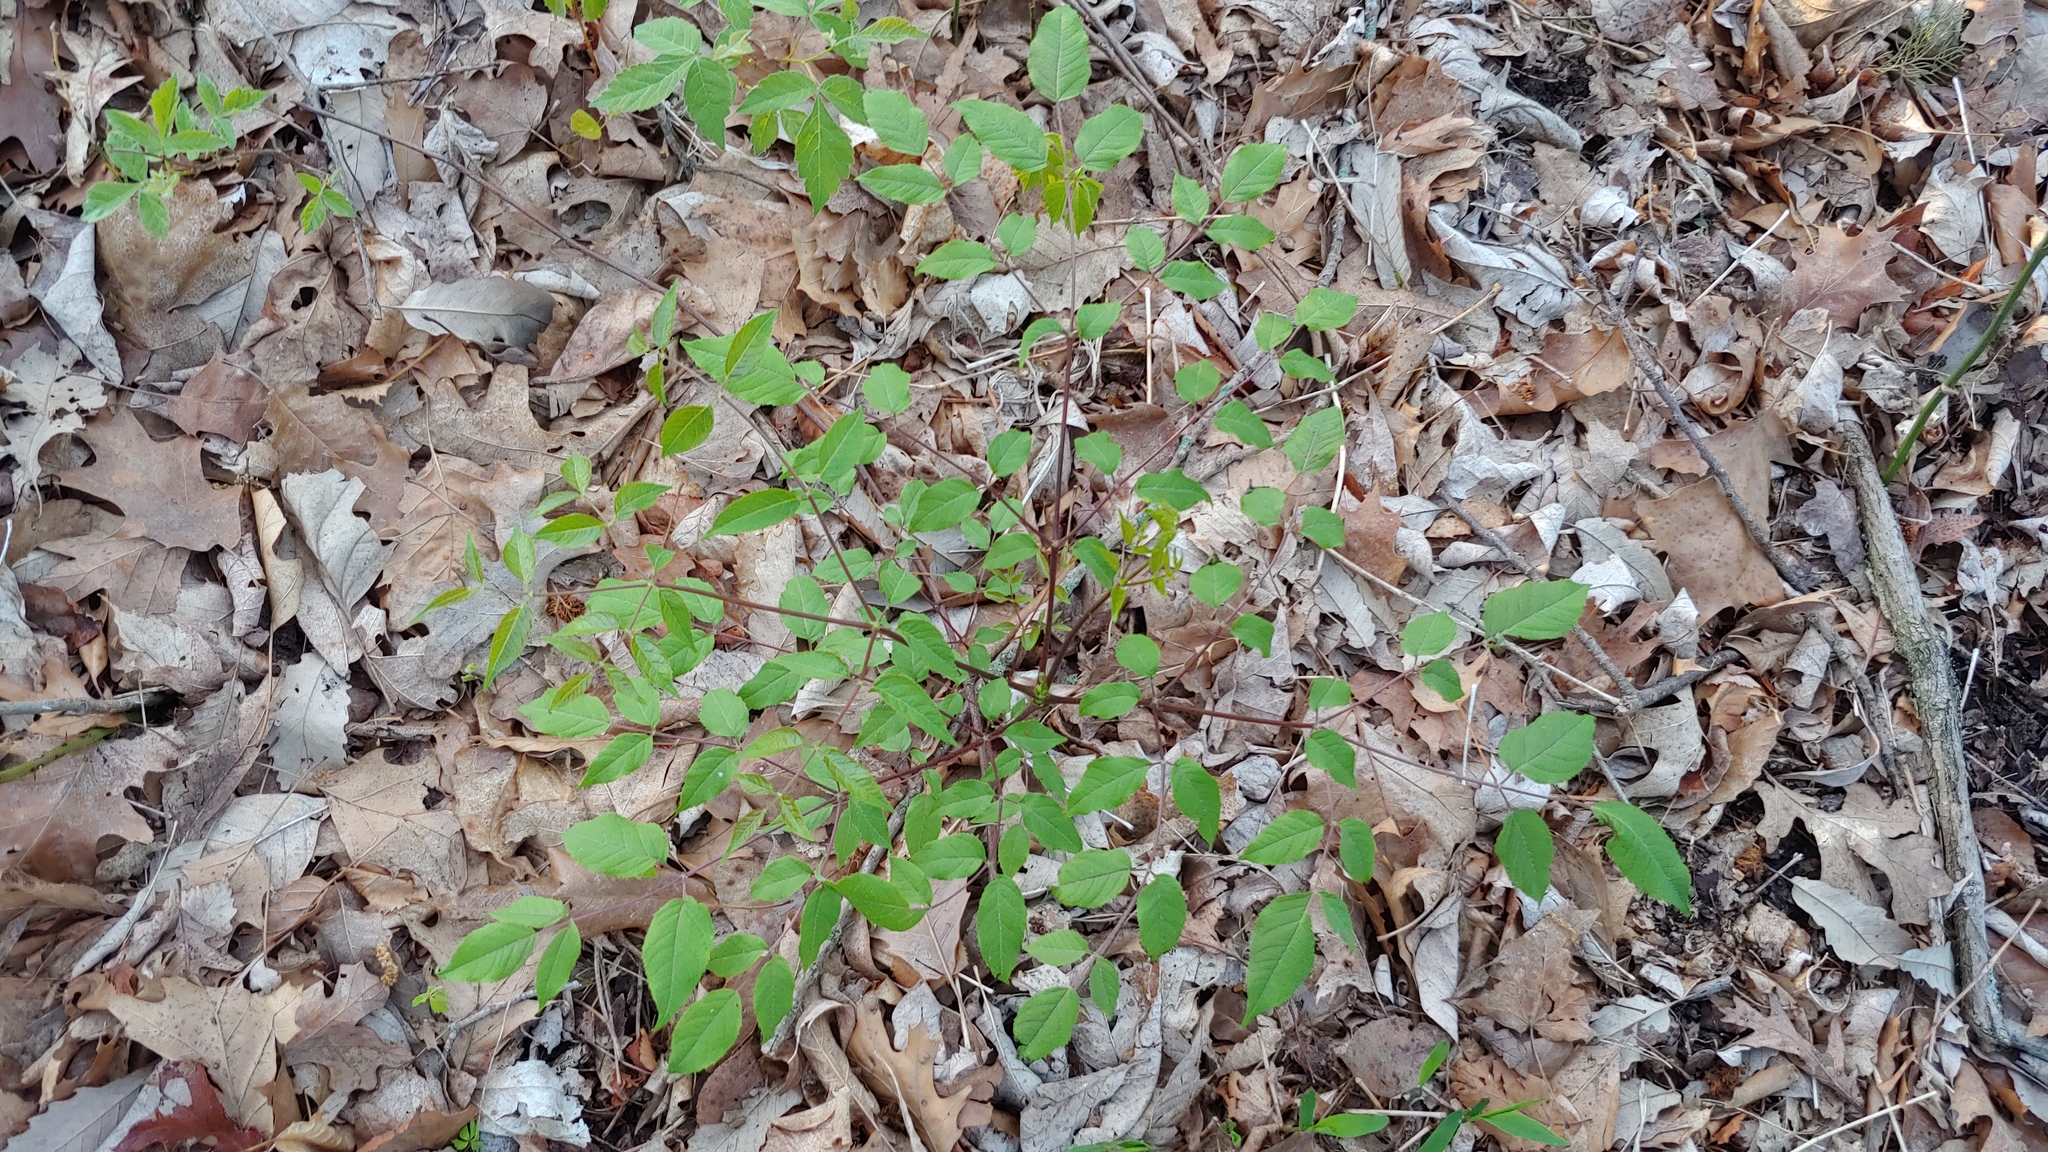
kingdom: Plantae
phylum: Tracheophyta
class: Magnoliopsida
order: Apiales
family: Araliaceae
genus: Aralia
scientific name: Aralia spinosa
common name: Hercules'-club
